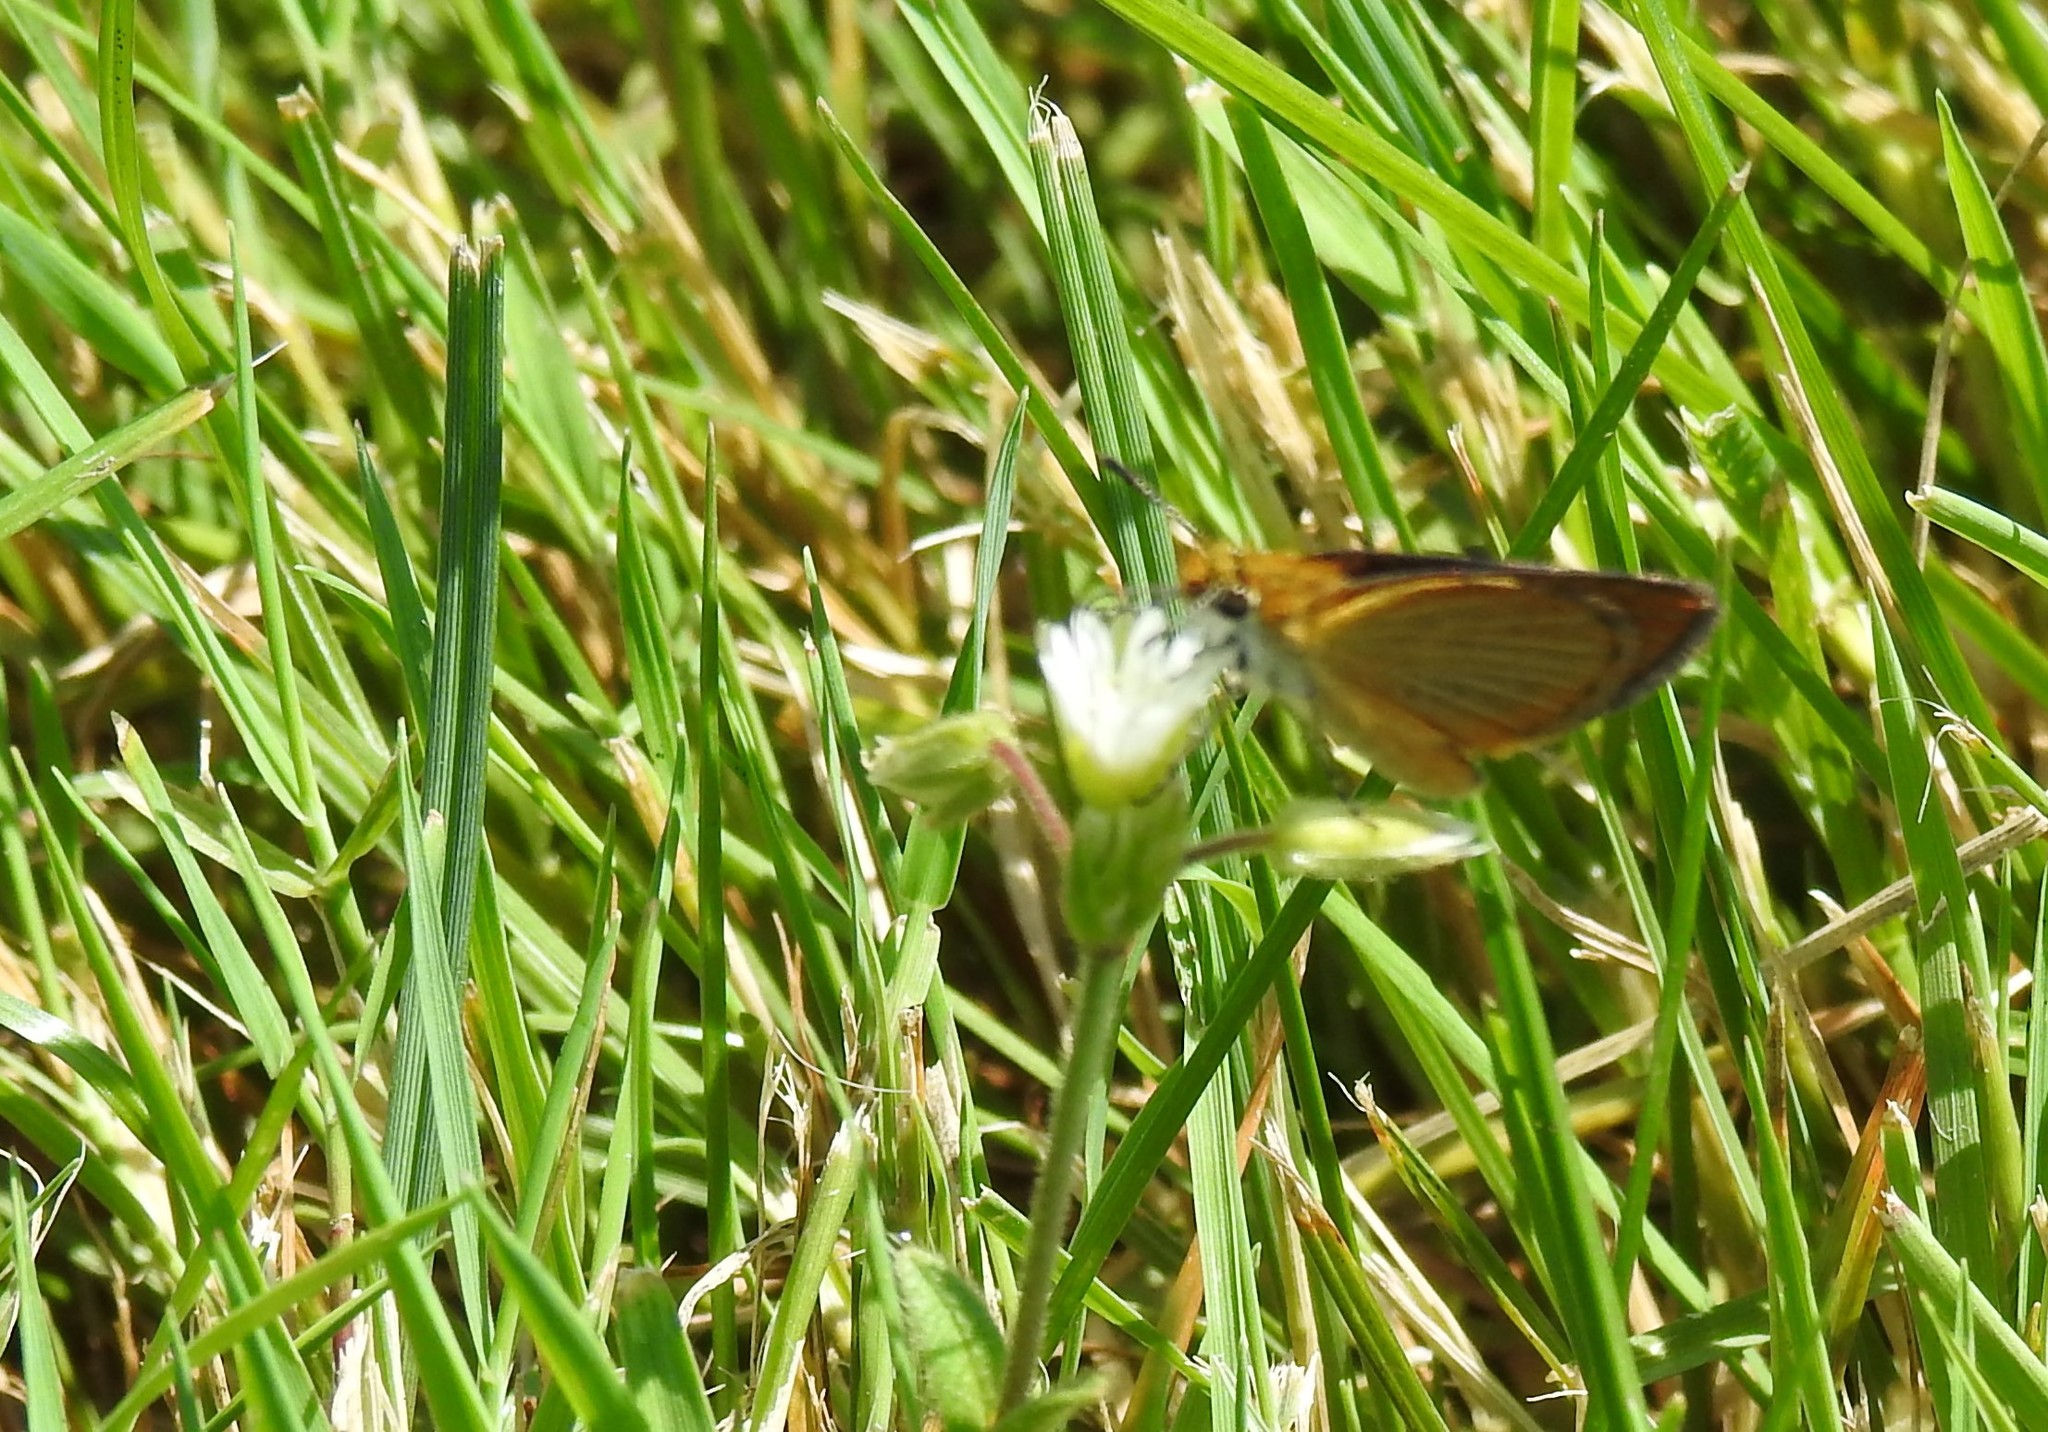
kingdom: Animalia
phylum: Arthropoda
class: Insecta
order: Lepidoptera
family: Hesperiidae
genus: Ancyloxypha
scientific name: Ancyloxypha numitor
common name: Least skipper
